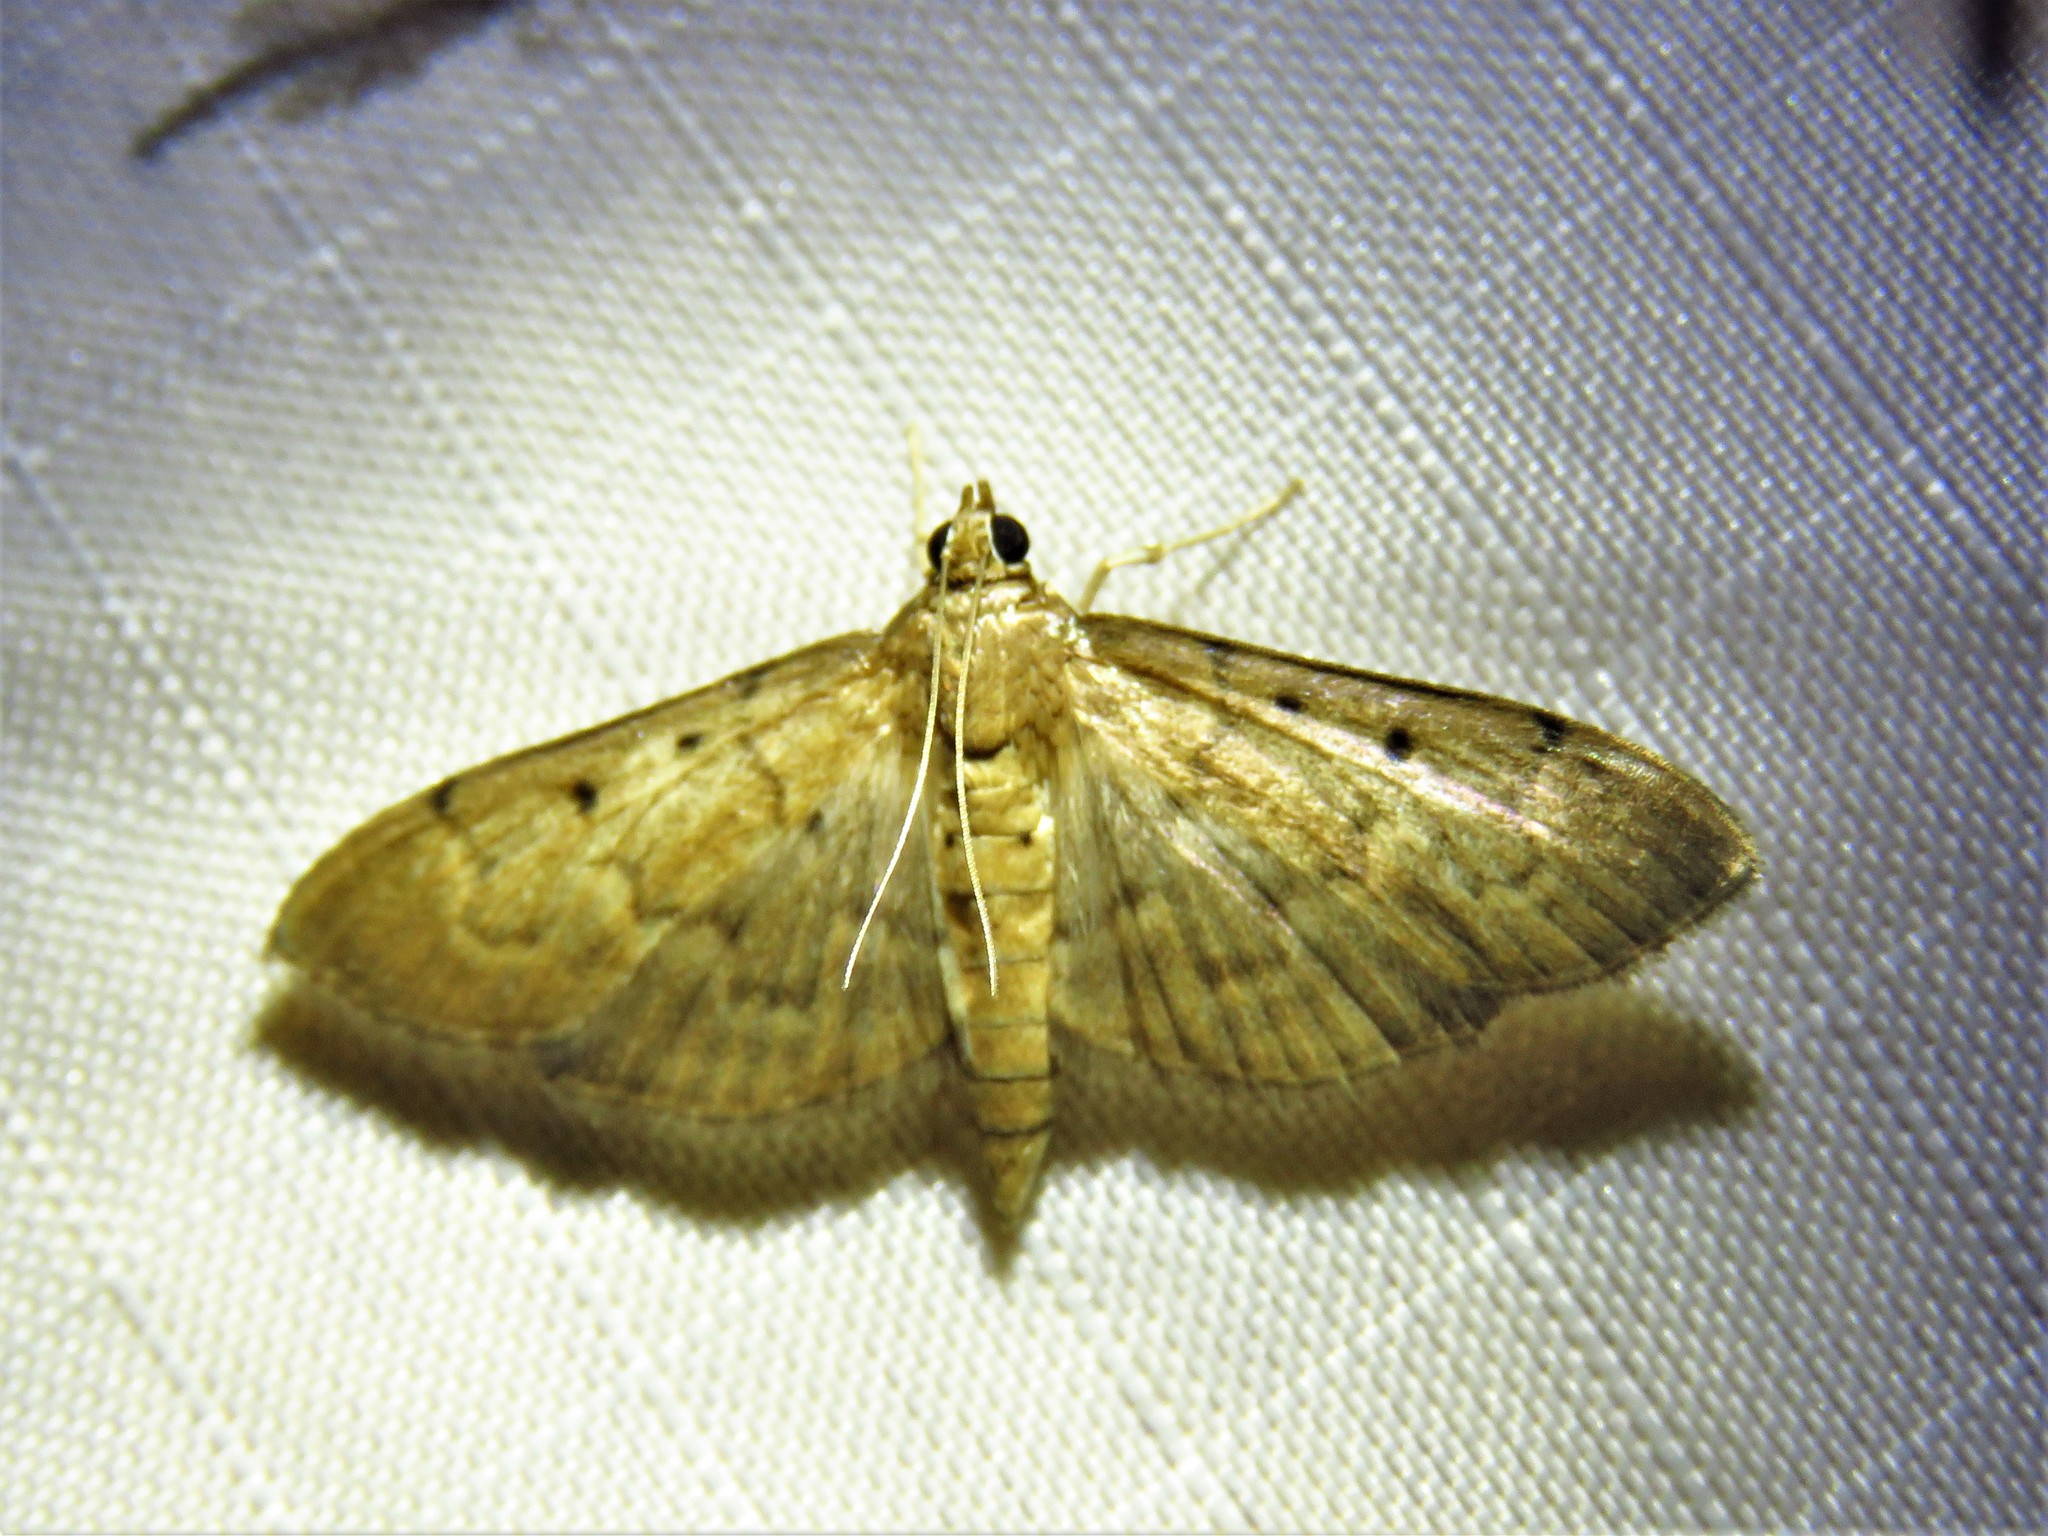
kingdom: Animalia
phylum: Arthropoda
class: Insecta
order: Lepidoptera
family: Crambidae
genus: Herpetogramma
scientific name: Herpetogramma bipunctalis
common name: Southern beet webworm
